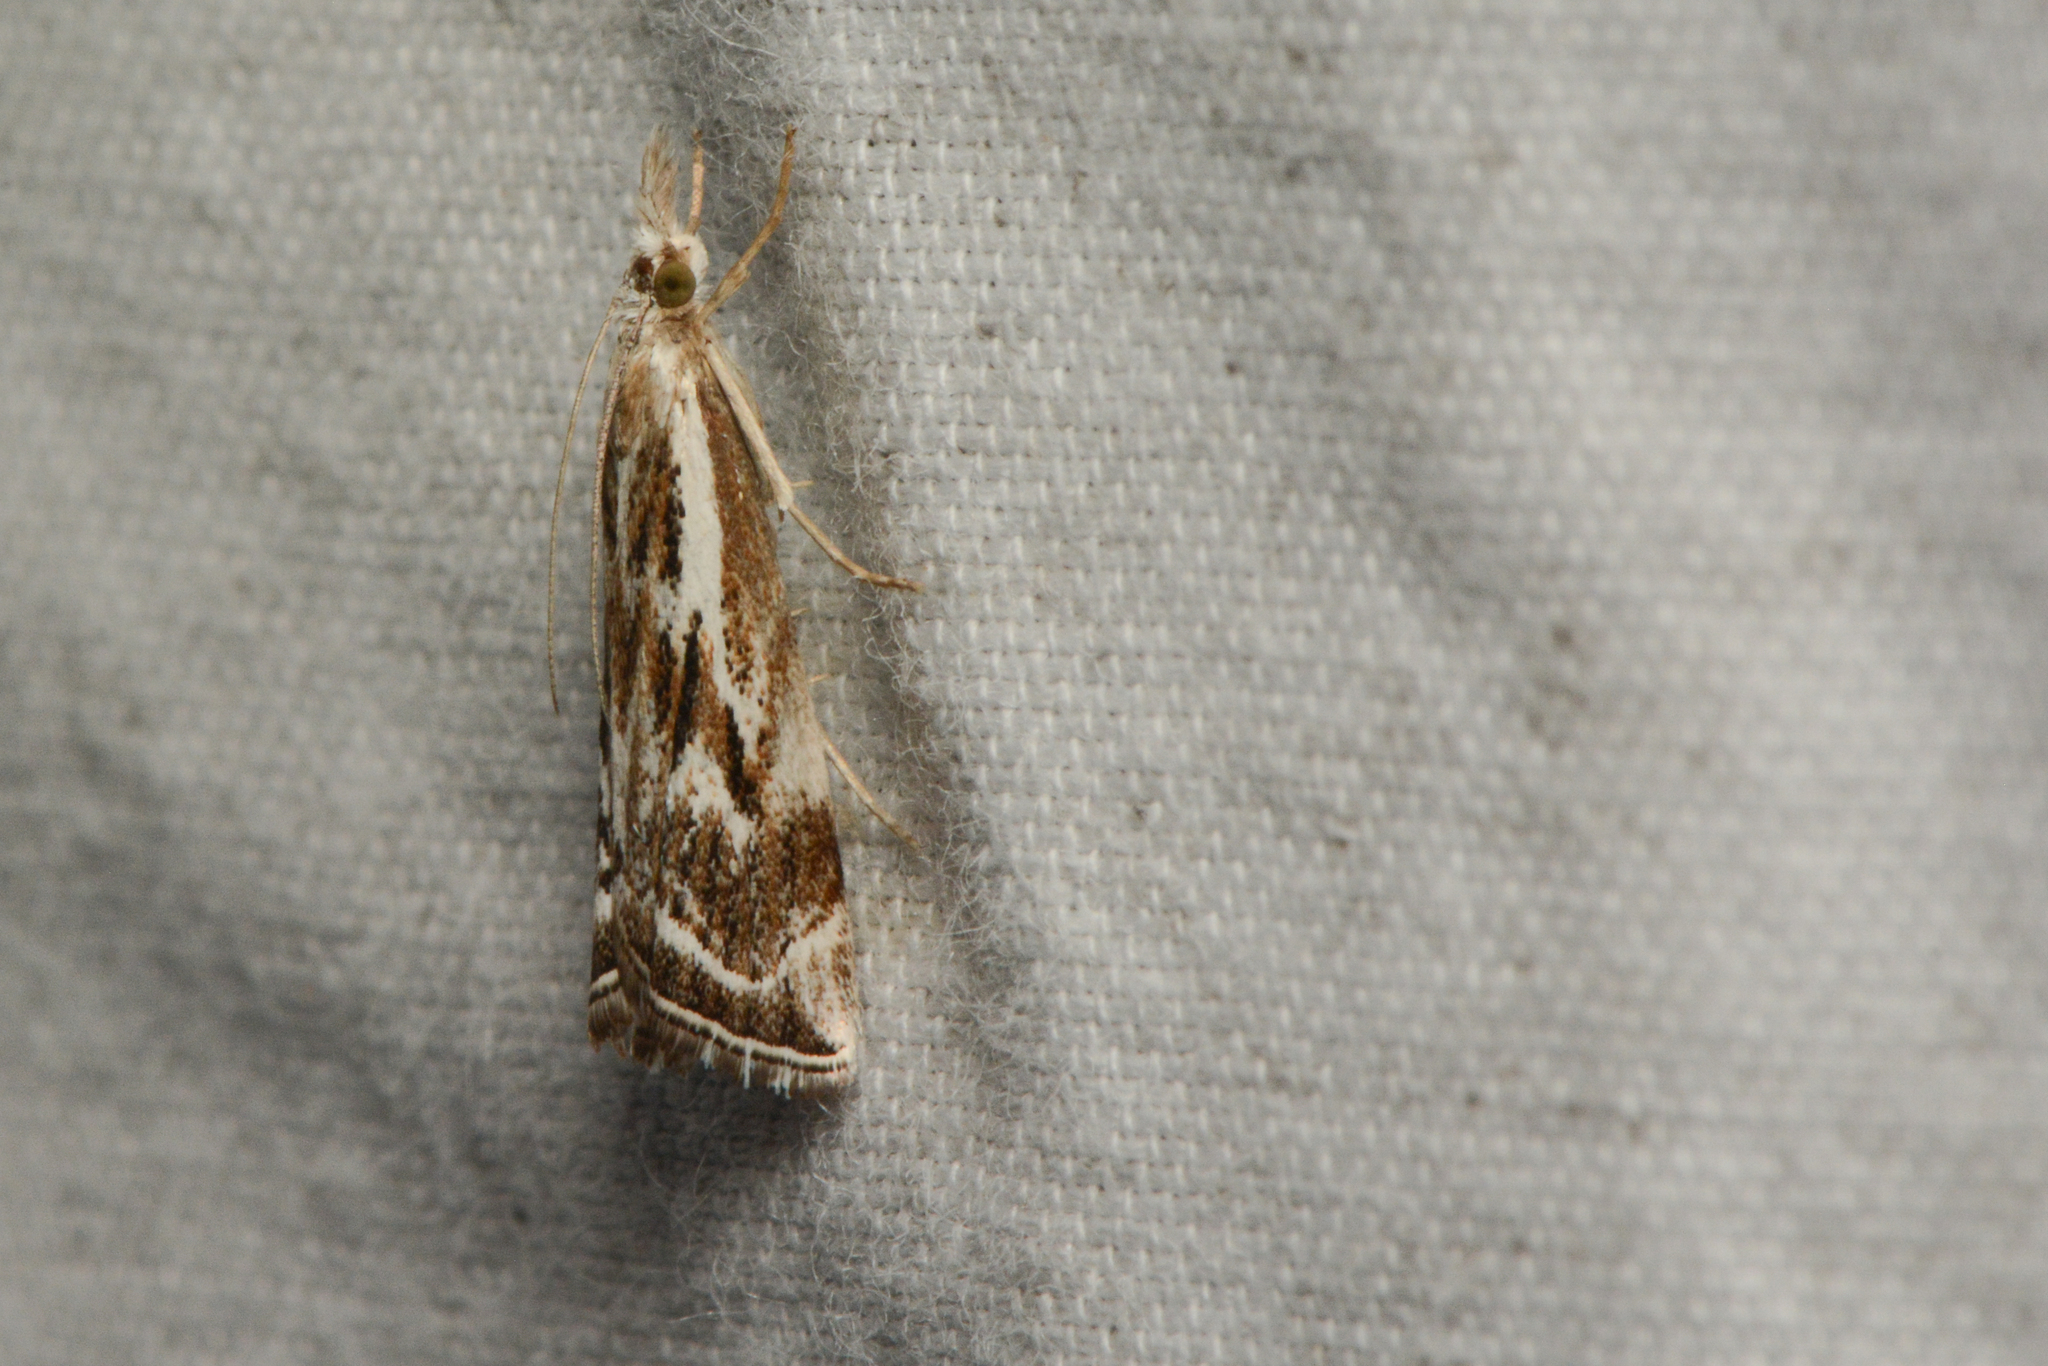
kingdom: Animalia
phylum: Arthropoda
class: Insecta
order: Lepidoptera
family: Crambidae
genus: Catoptria
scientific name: Catoptria oregonicus
